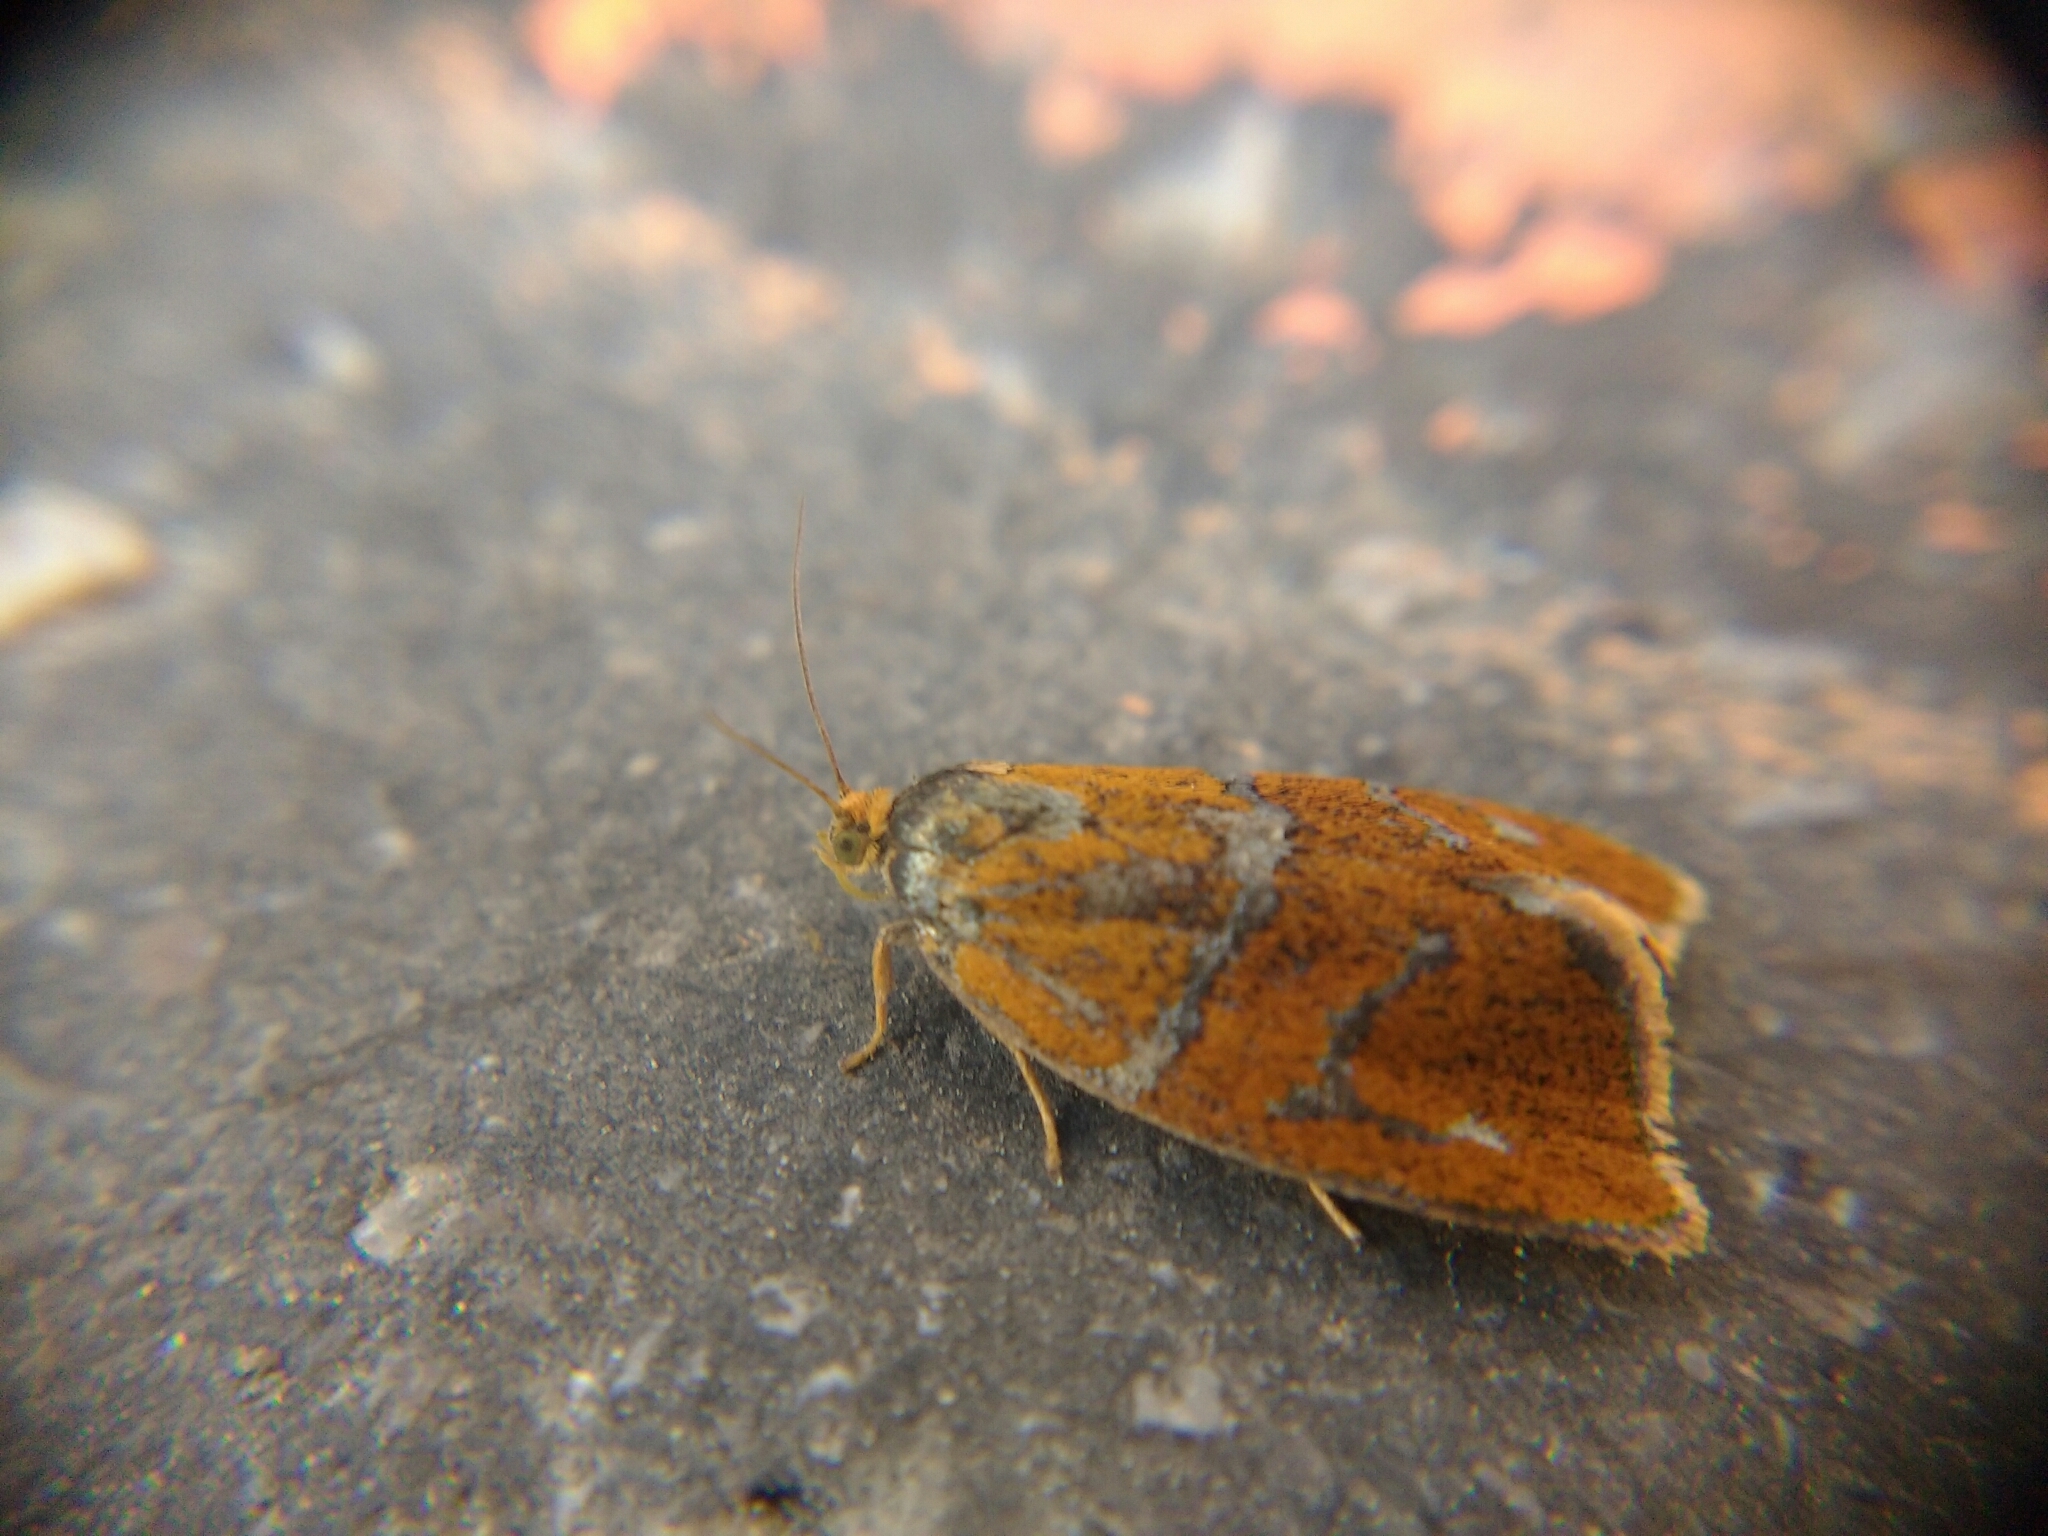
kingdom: Animalia
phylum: Arthropoda
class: Insecta
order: Lepidoptera
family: Tortricidae
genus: Ptycholoma
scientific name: Ptycholoma lecheana
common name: Leches twist moth
